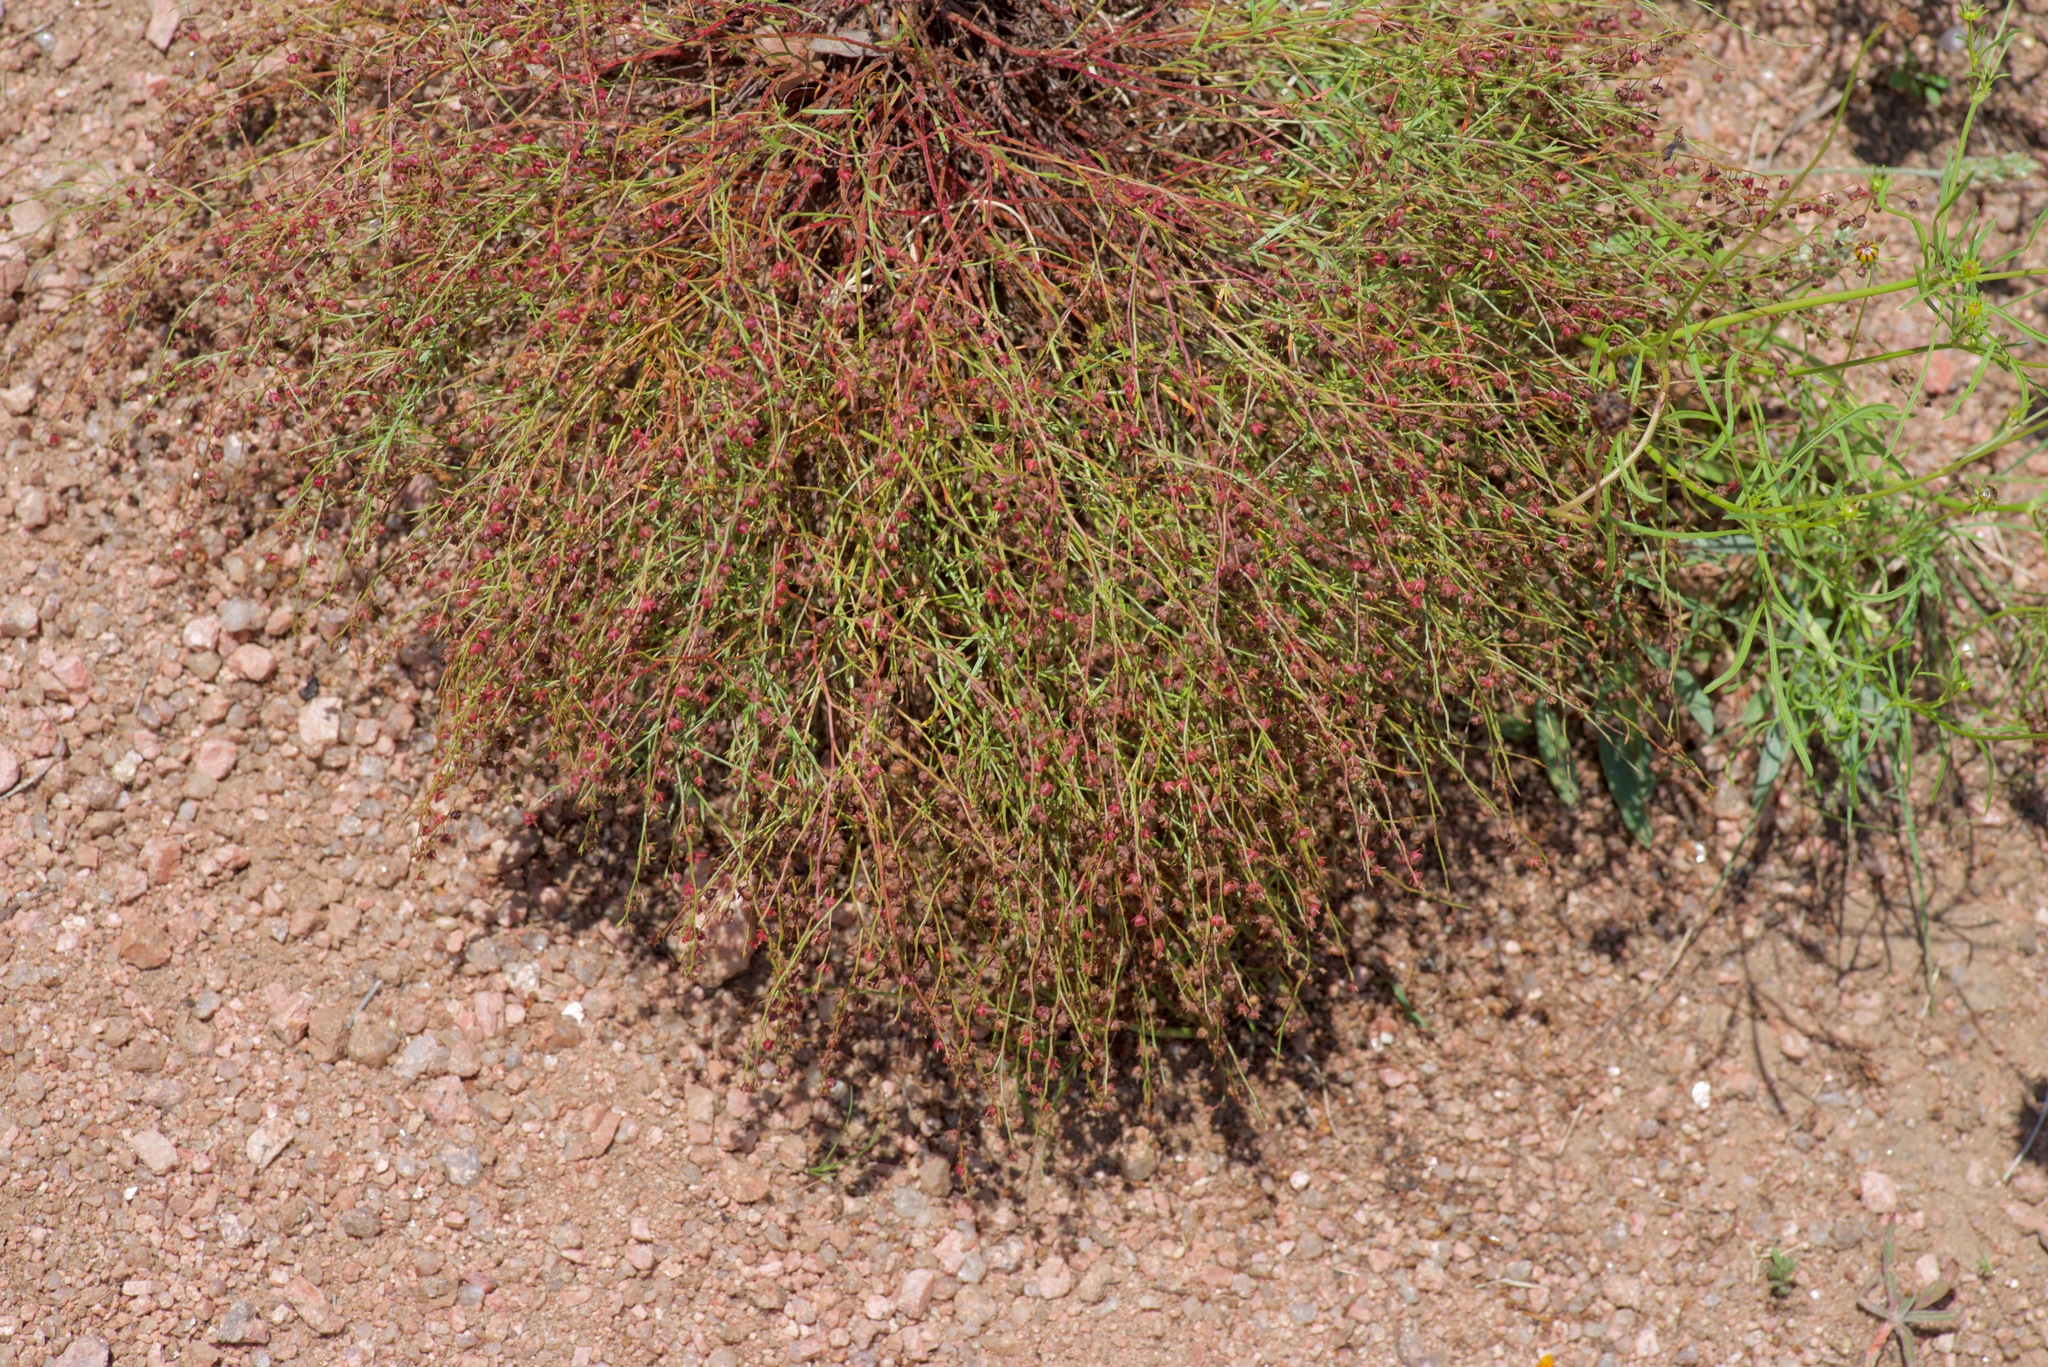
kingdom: Plantae
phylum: Tracheophyta
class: Magnoliopsida
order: Malvales
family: Cistaceae
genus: Lechea
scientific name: Lechea san-sabeana
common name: San saba pinweed
